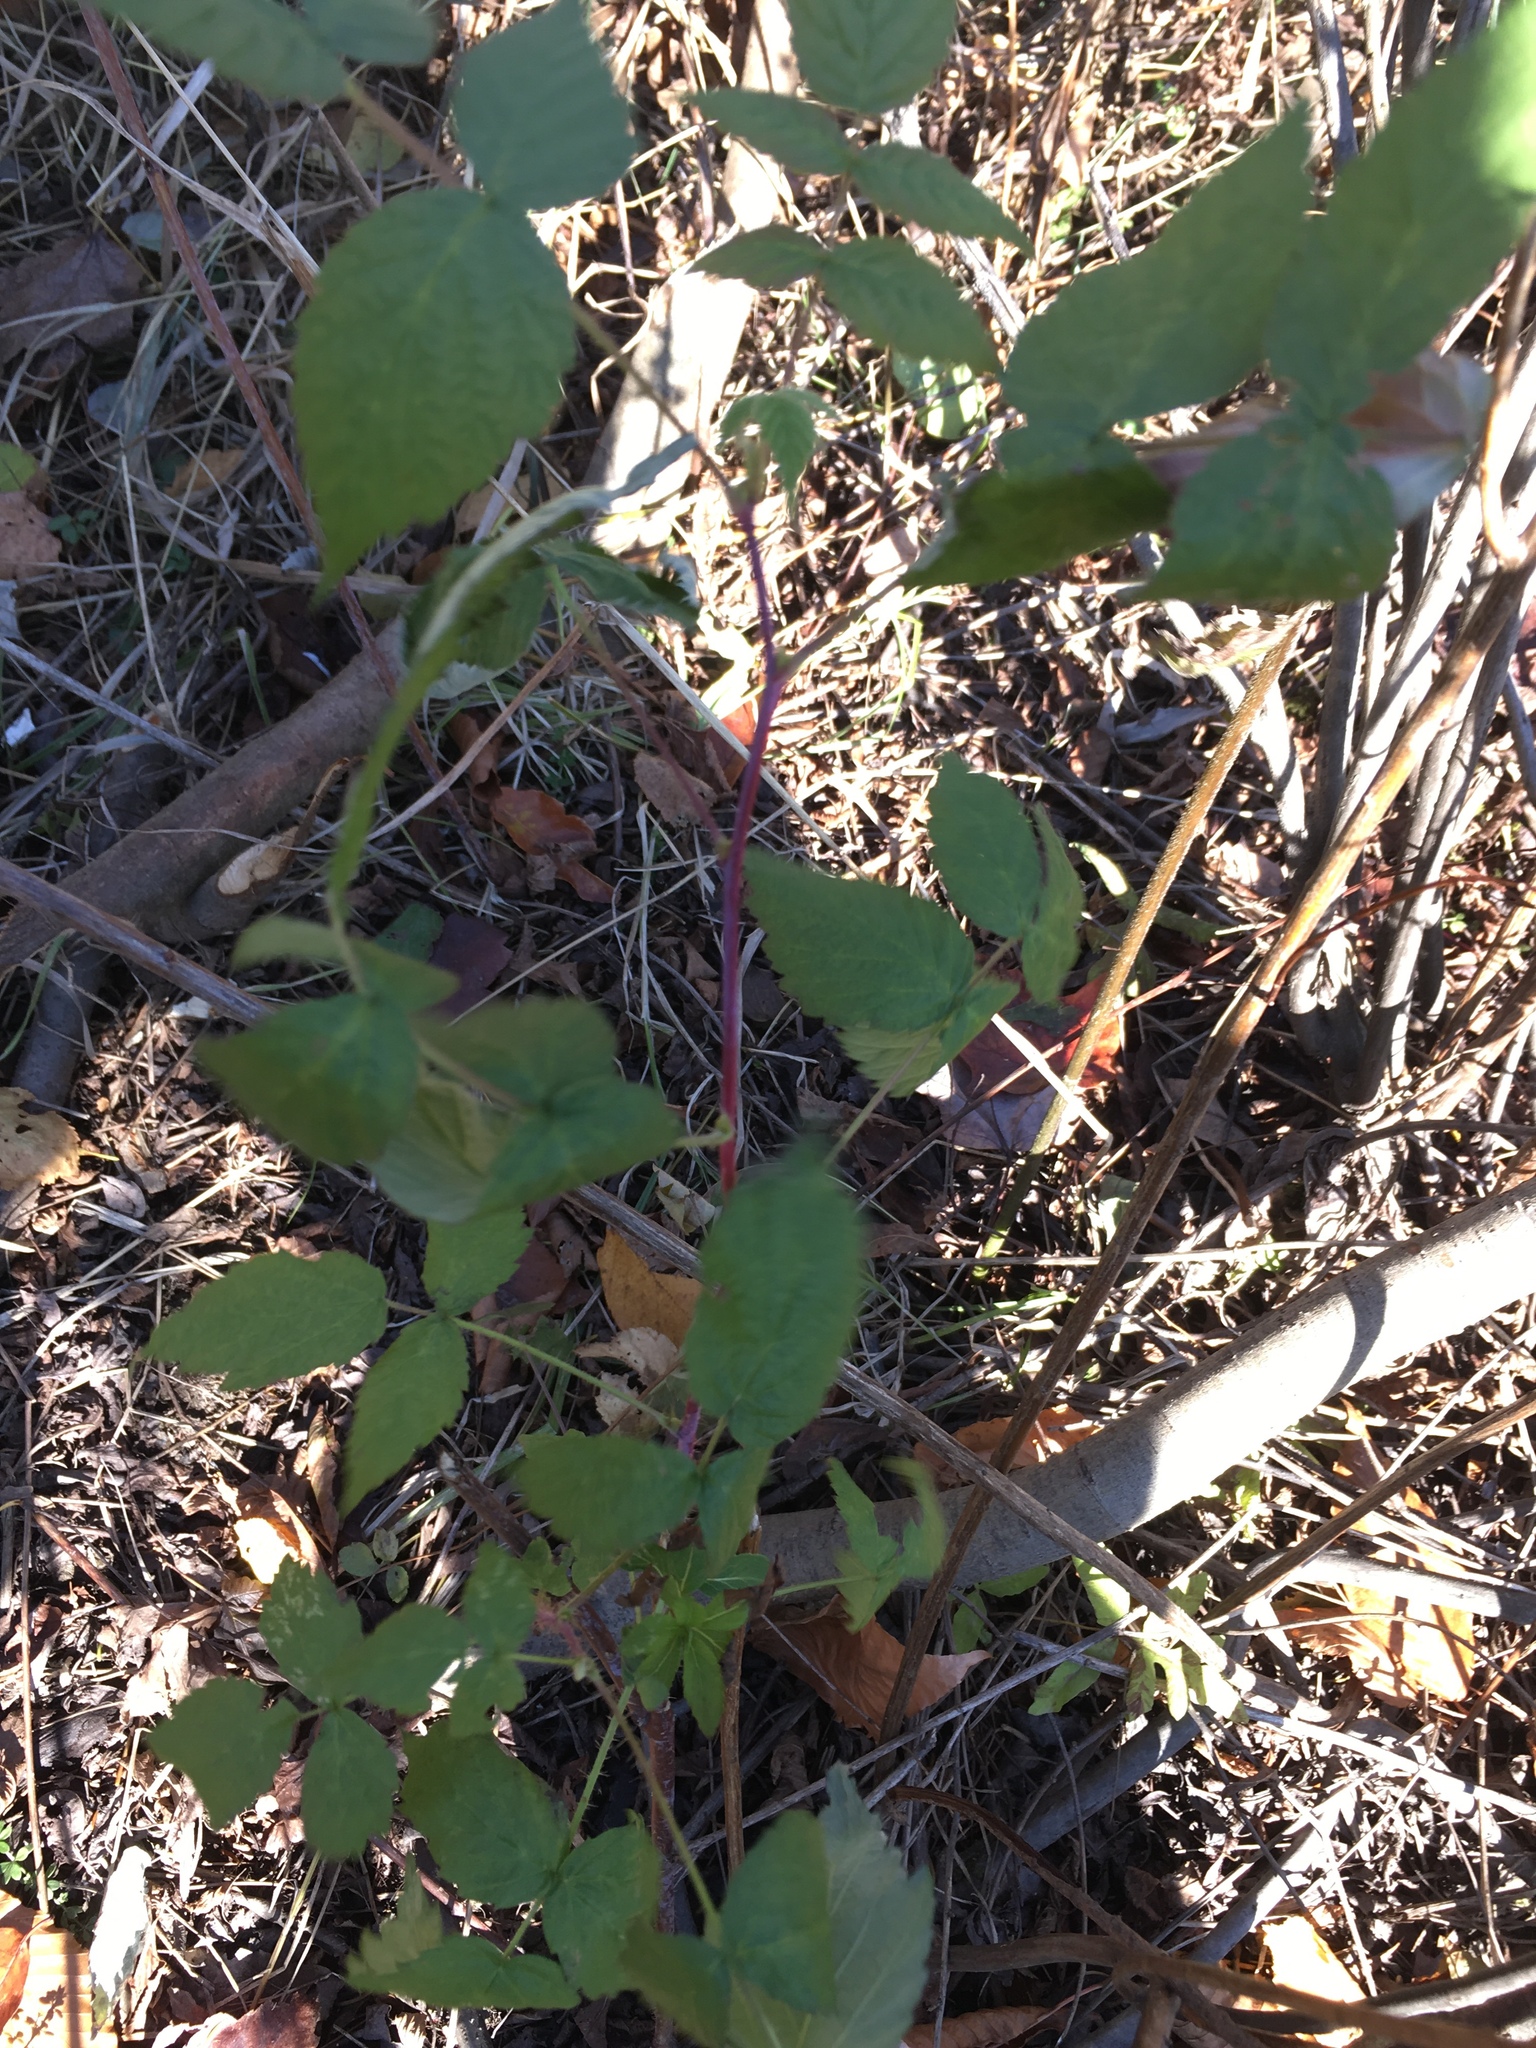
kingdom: Plantae
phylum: Tracheophyta
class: Magnoliopsida
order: Rosales
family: Rosaceae
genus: Rubus
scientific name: Rubus occidentalis
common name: Black raspberry
